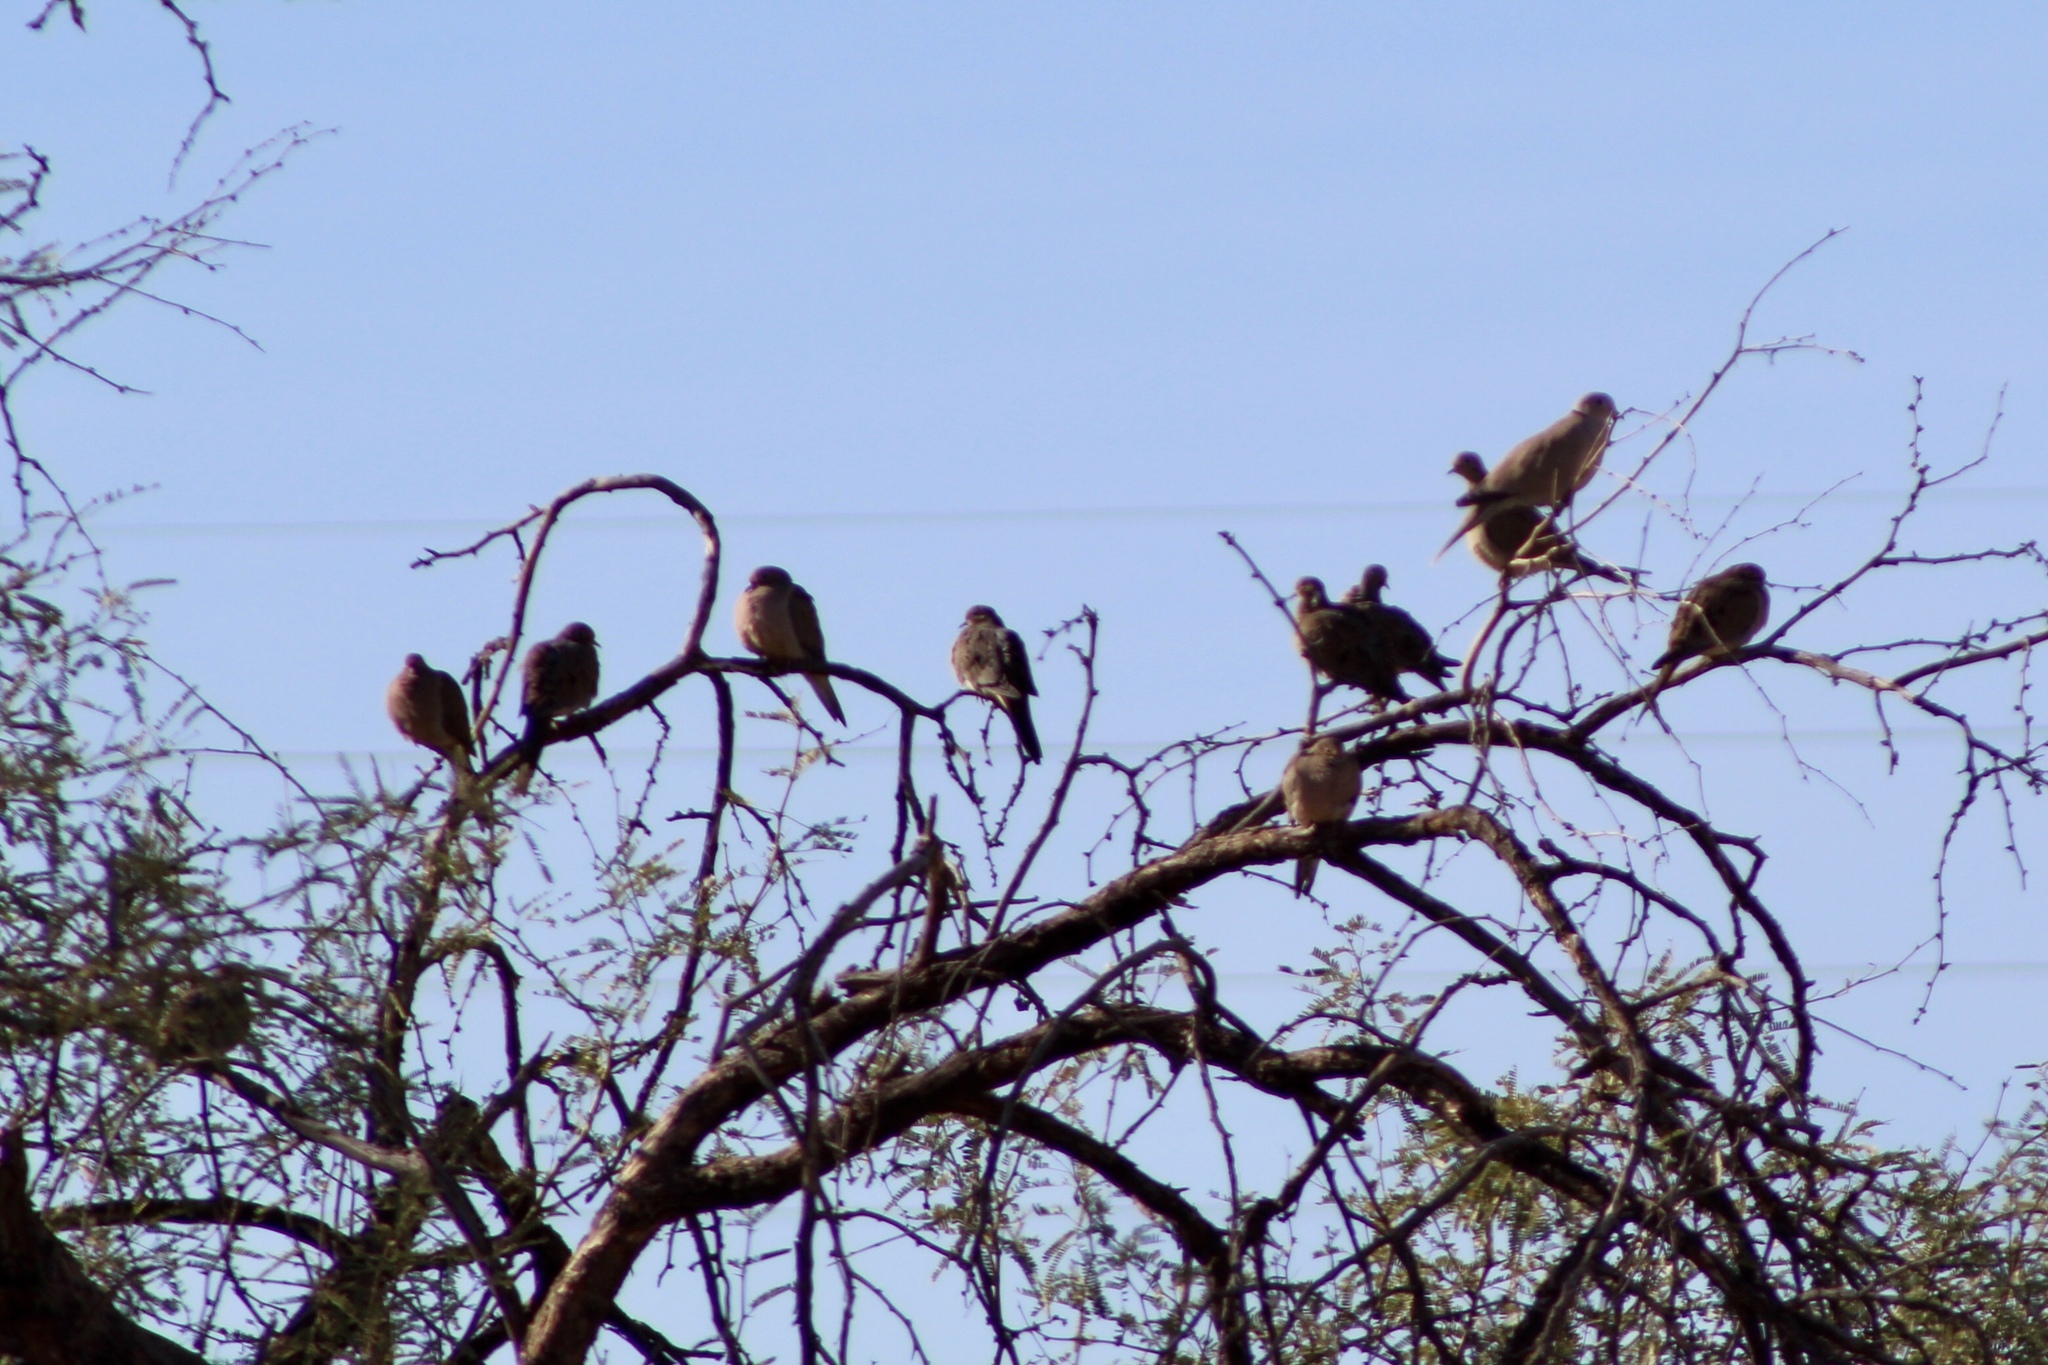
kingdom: Animalia
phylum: Chordata
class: Aves
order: Columbiformes
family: Columbidae
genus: Zenaida
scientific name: Zenaida macroura
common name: Mourning dove
